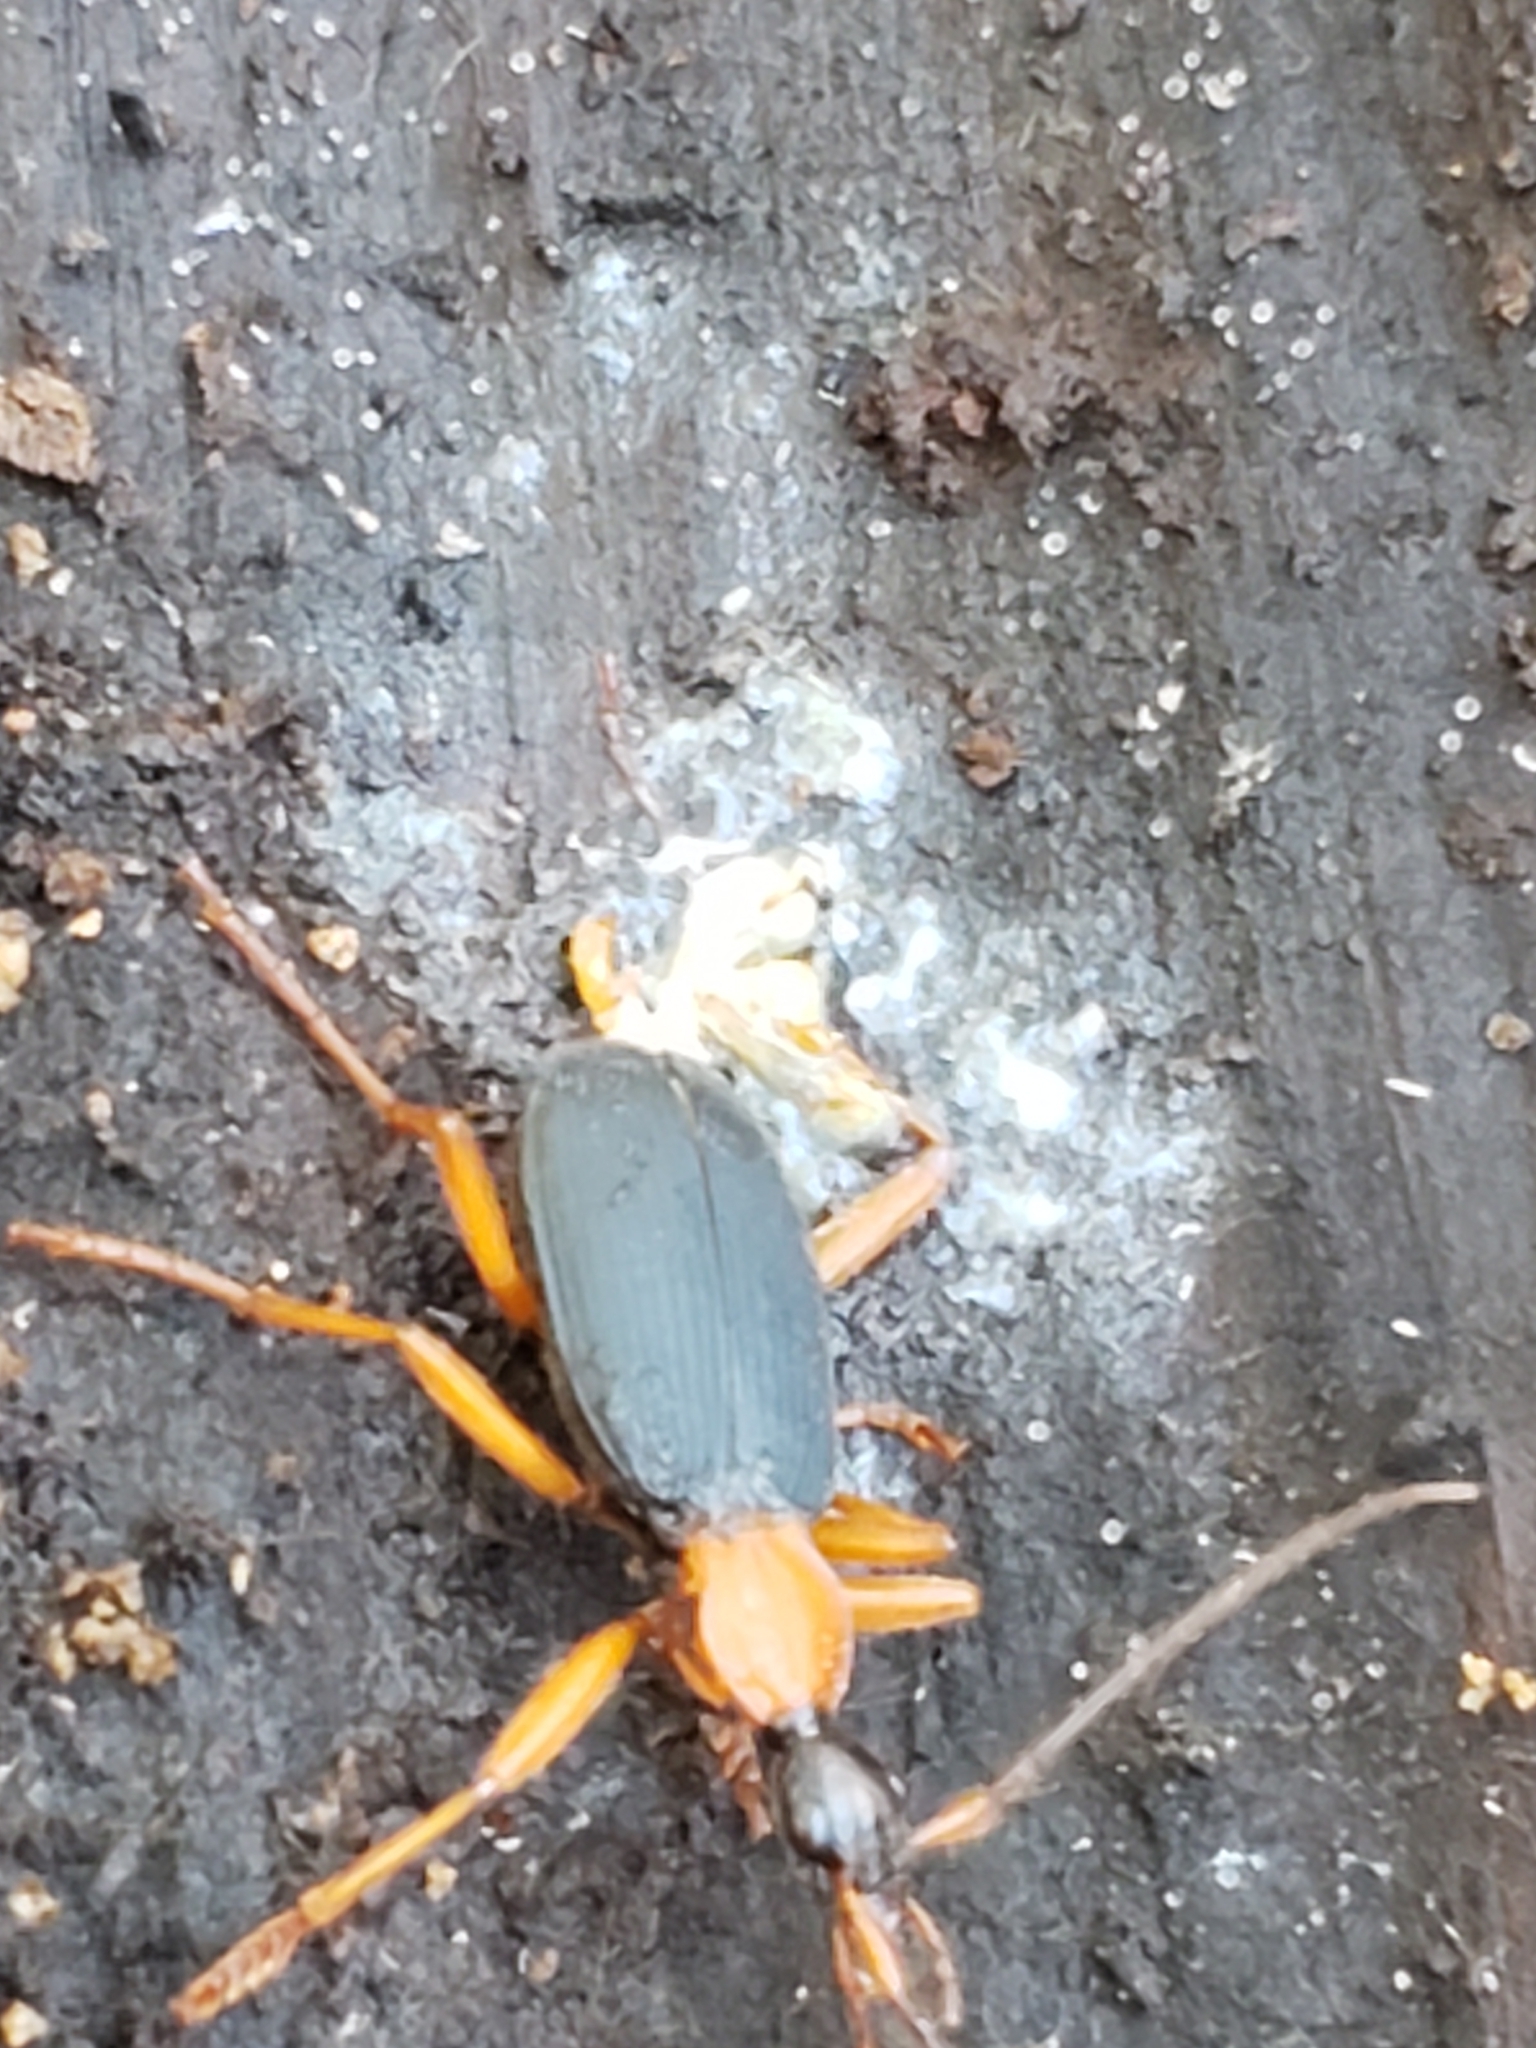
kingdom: Animalia
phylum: Arthropoda
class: Insecta
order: Coleoptera
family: Carabidae
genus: Galerita
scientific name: Galerita bicolor
